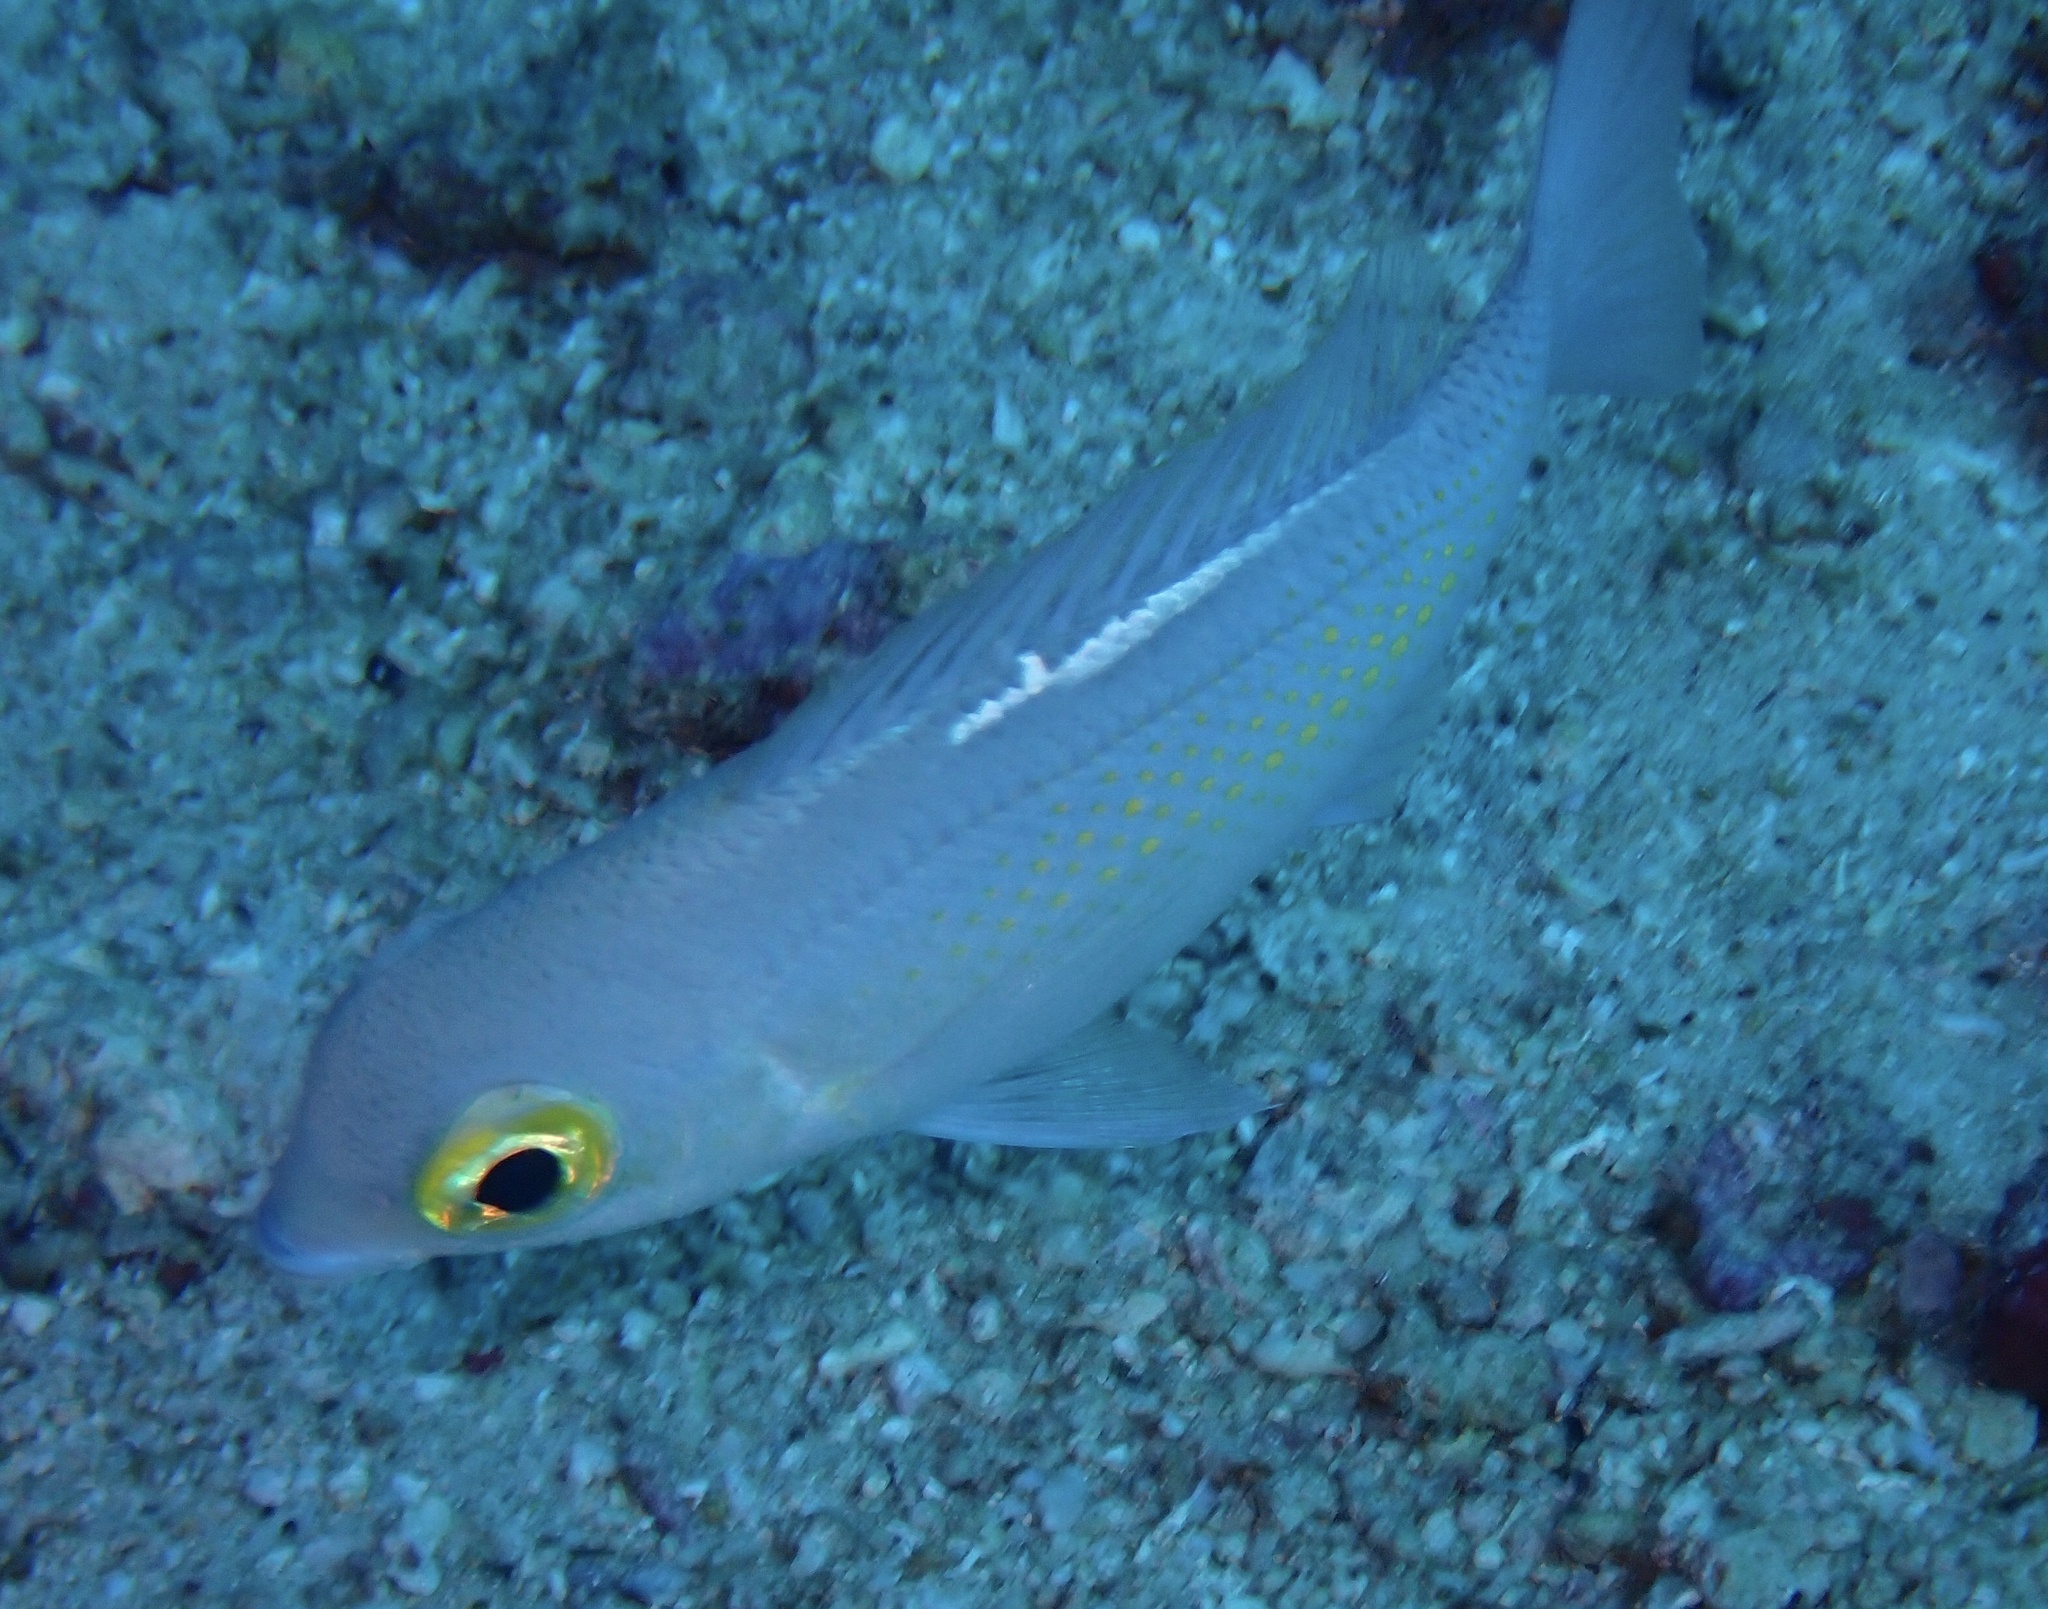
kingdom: Animalia
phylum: Chordata
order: Perciformes
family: Nemipteridae
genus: Scolopsis
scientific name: Scolopsis ciliata
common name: Ciliate spinecheek
